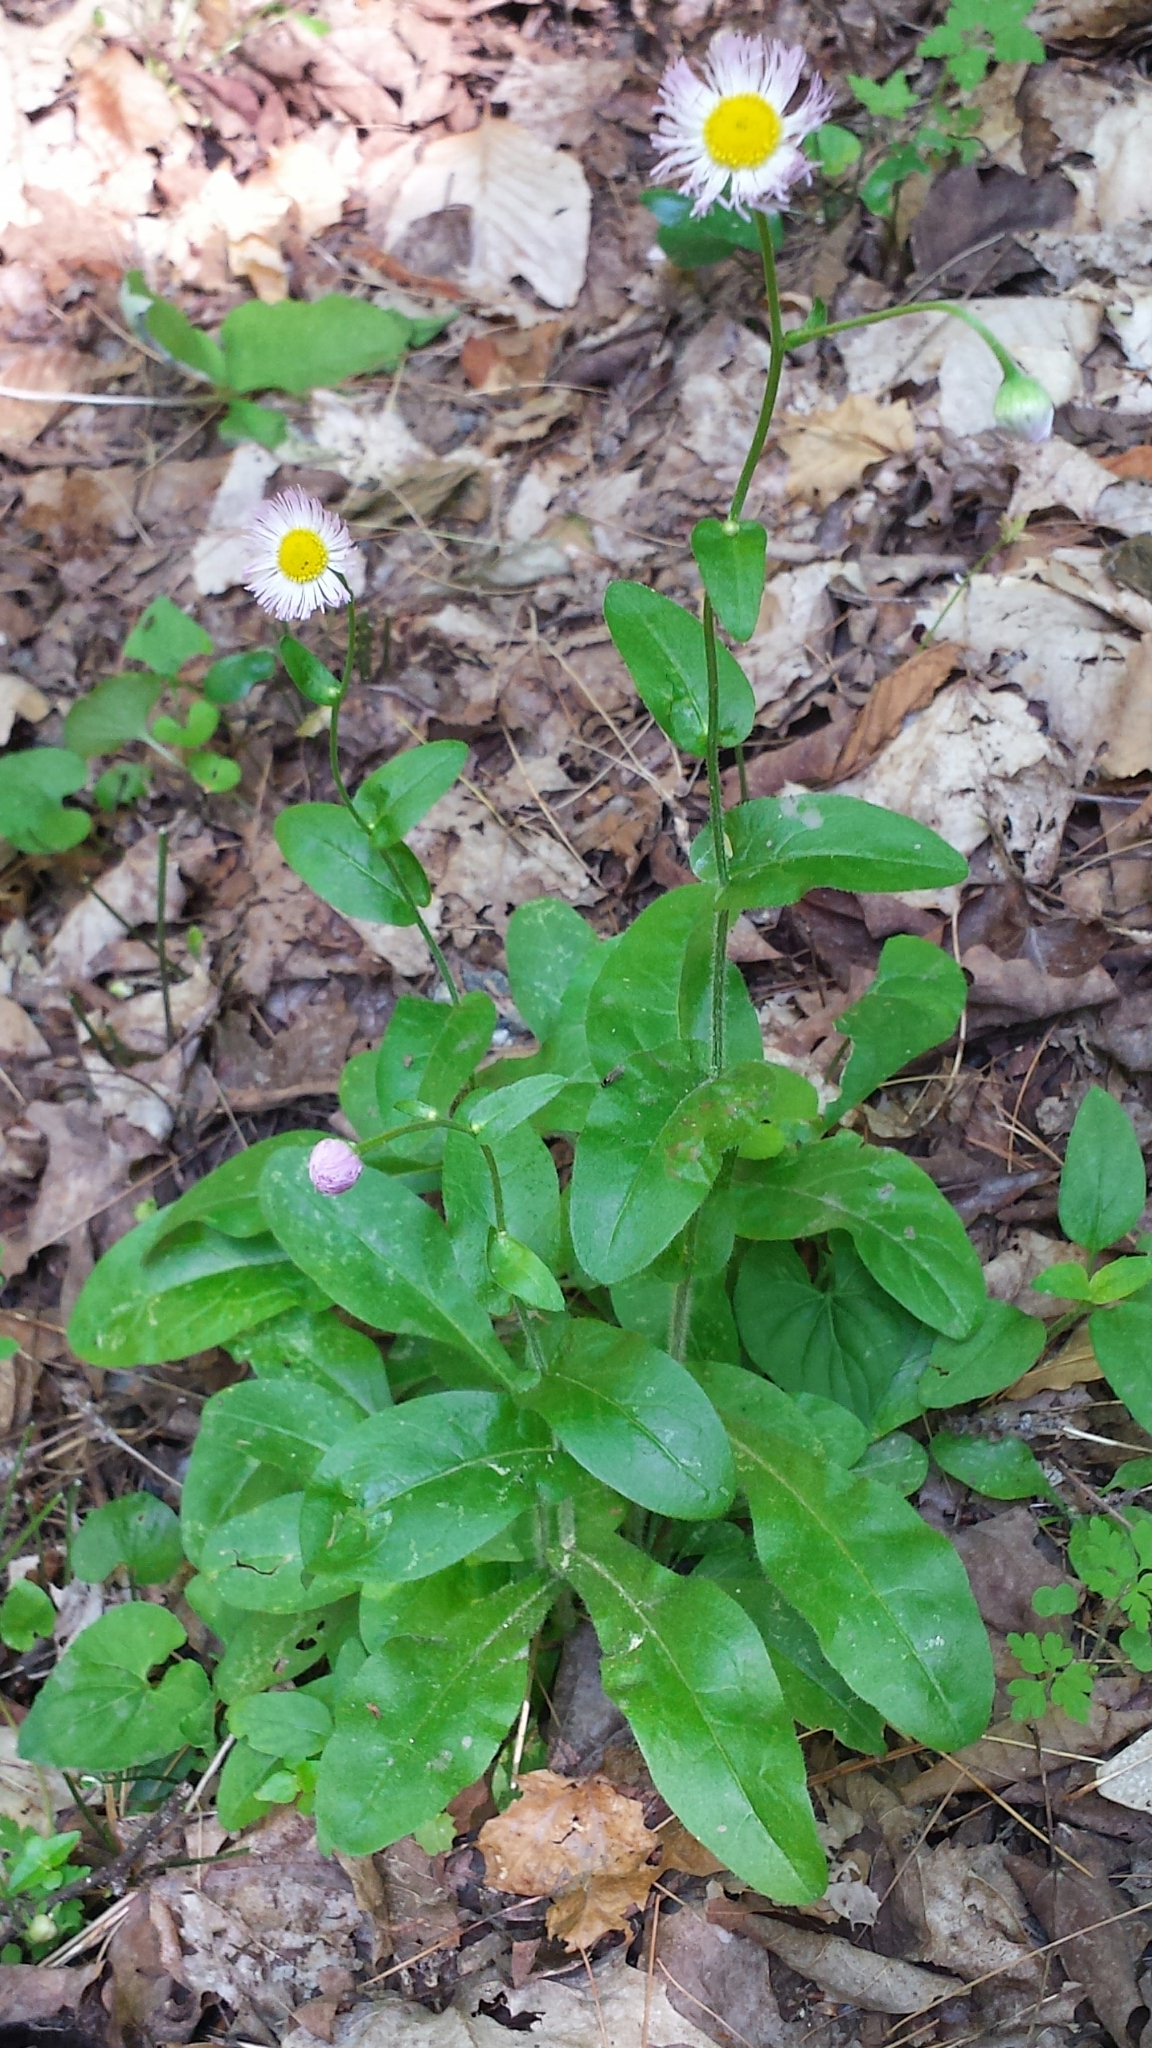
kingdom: Plantae
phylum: Tracheophyta
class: Magnoliopsida
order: Asterales
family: Asteraceae
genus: Erigeron
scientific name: Erigeron philadelphicus
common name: Robin's-plantain
